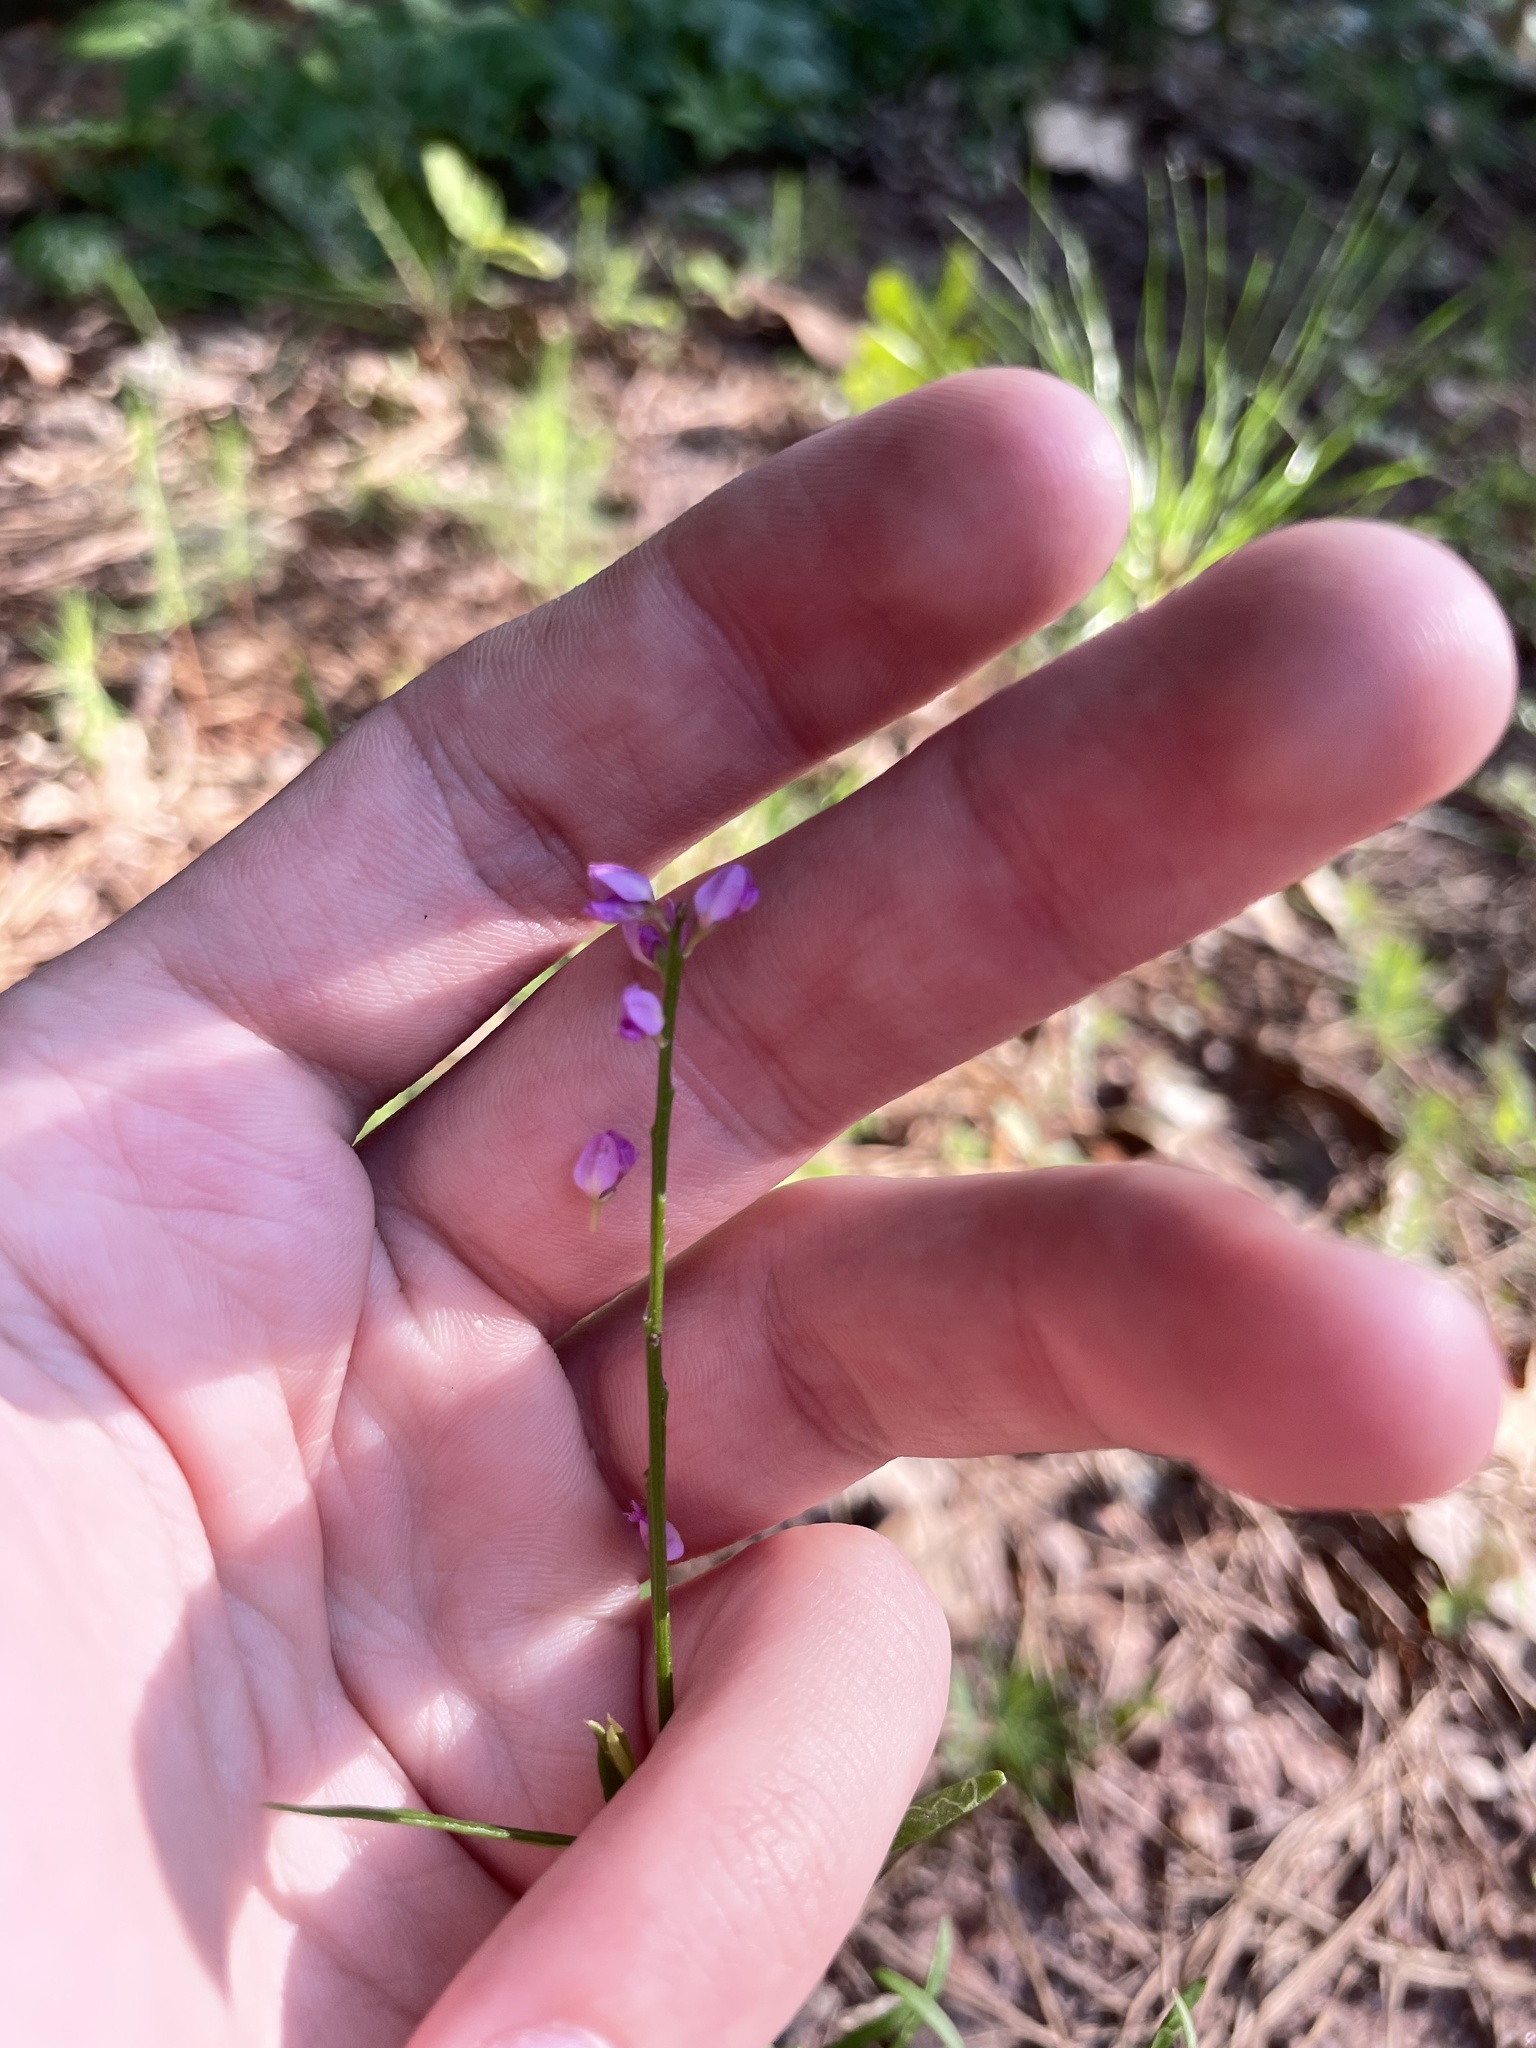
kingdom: Plantae
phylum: Tracheophyta
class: Magnoliopsida
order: Fabales
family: Polygalaceae
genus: Polygala
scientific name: Polygala polygama
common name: Bitter milkwort
